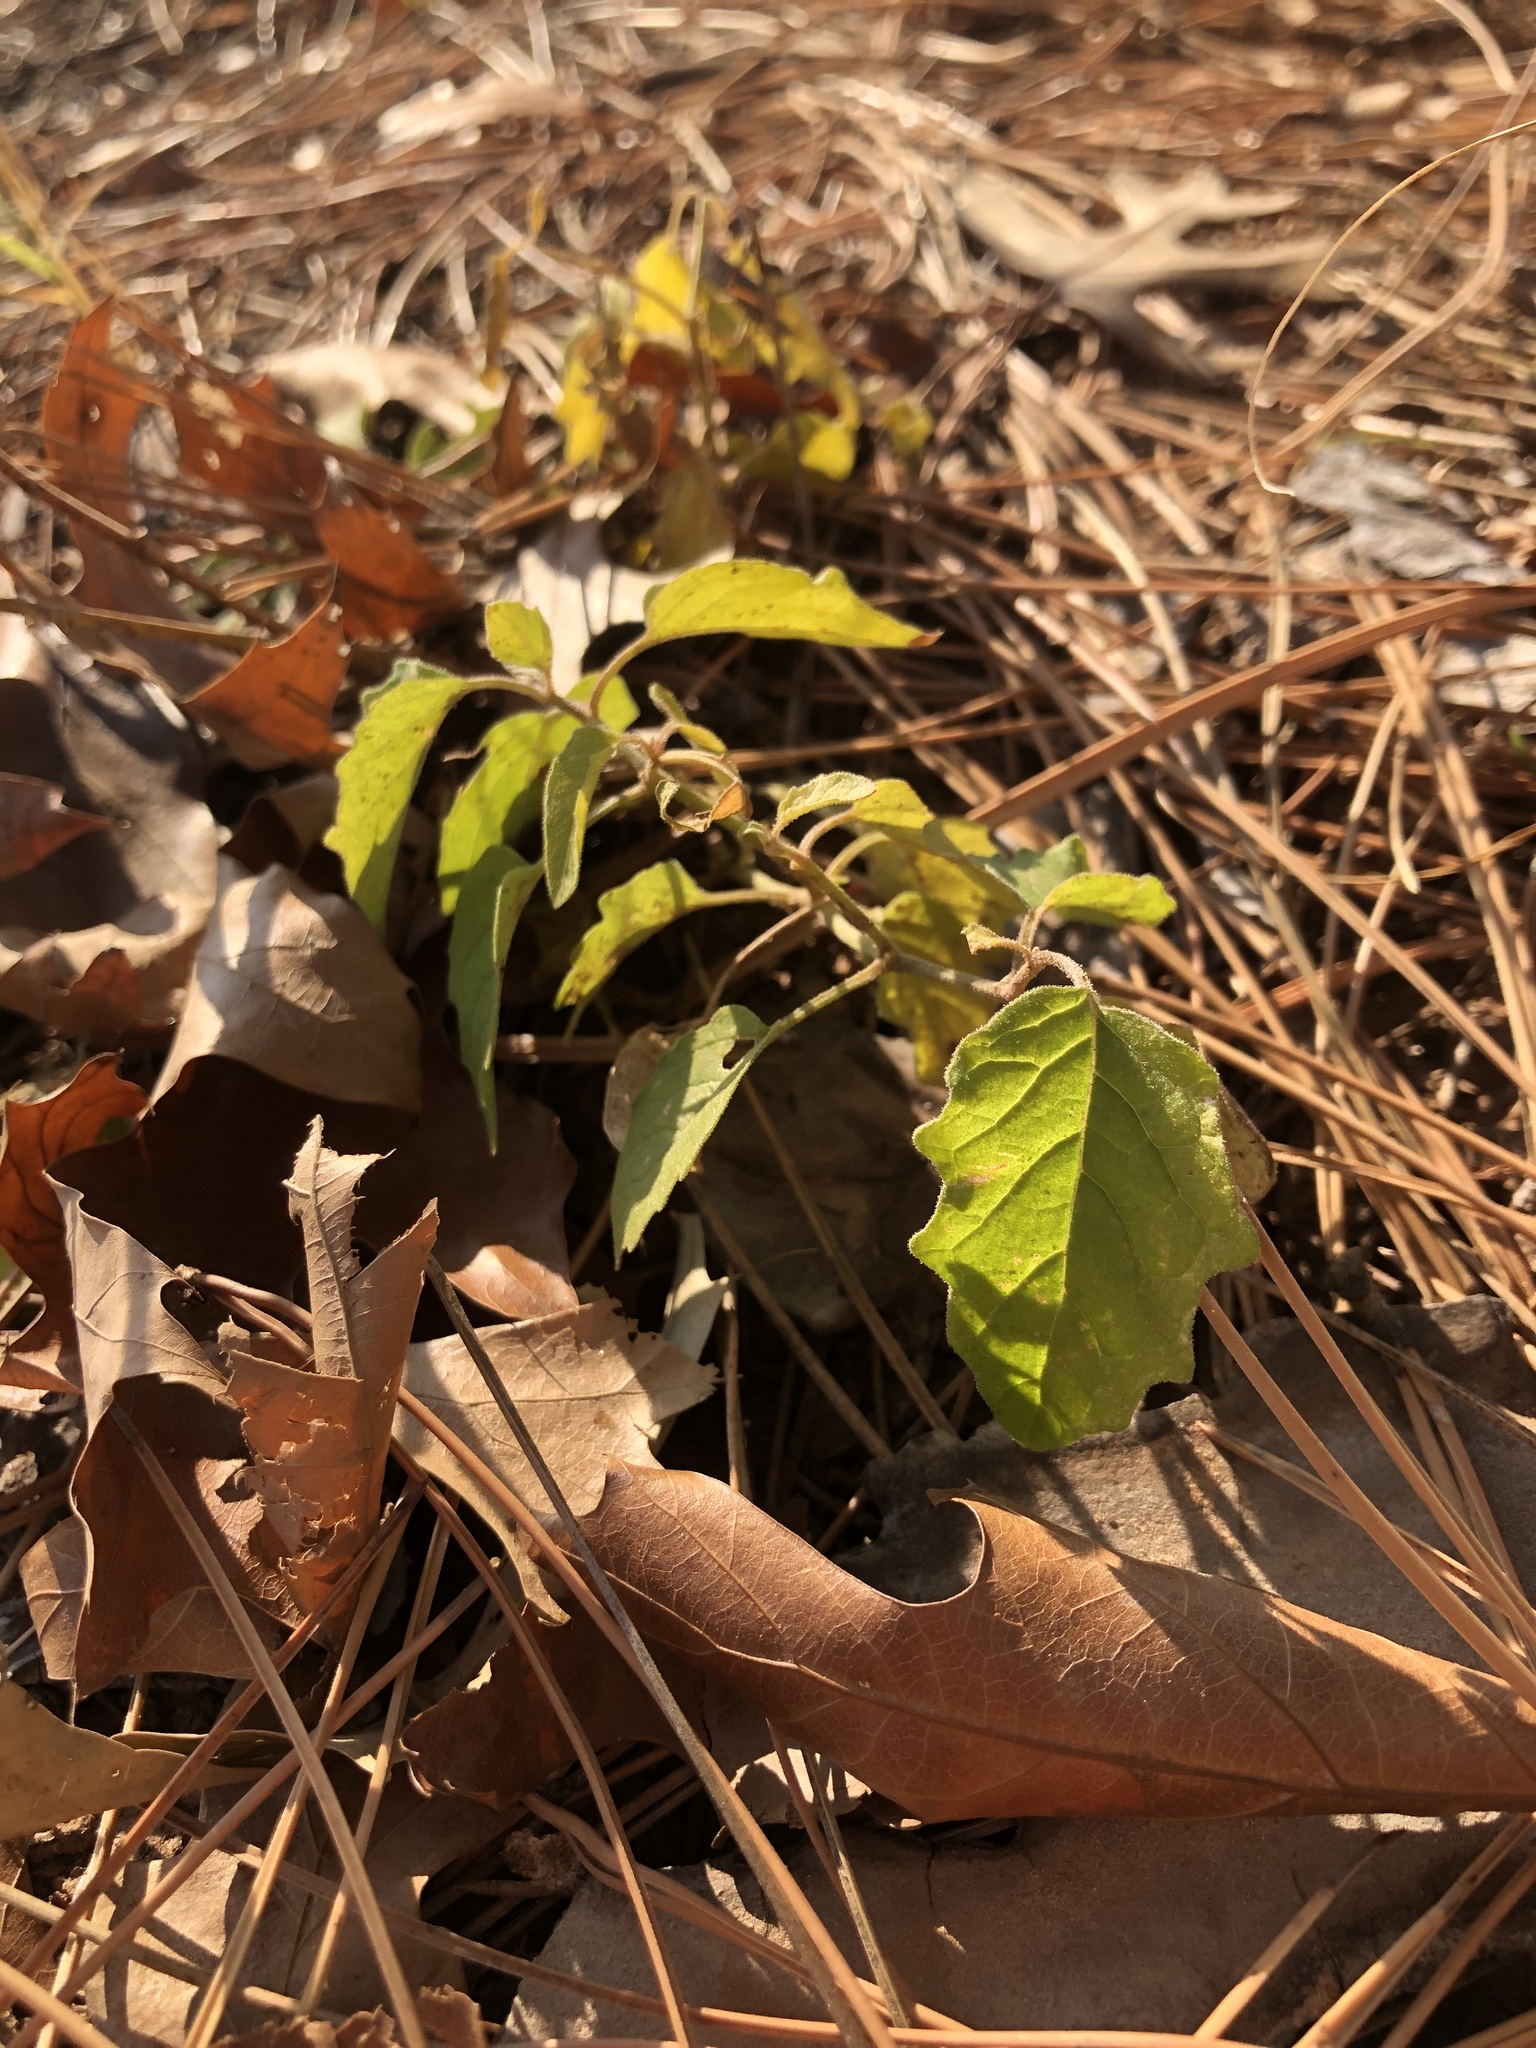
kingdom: Plantae
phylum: Tracheophyta
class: Magnoliopsida
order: Solanales
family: Solanaceae
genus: Physalis
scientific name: Physalis cinerascens
